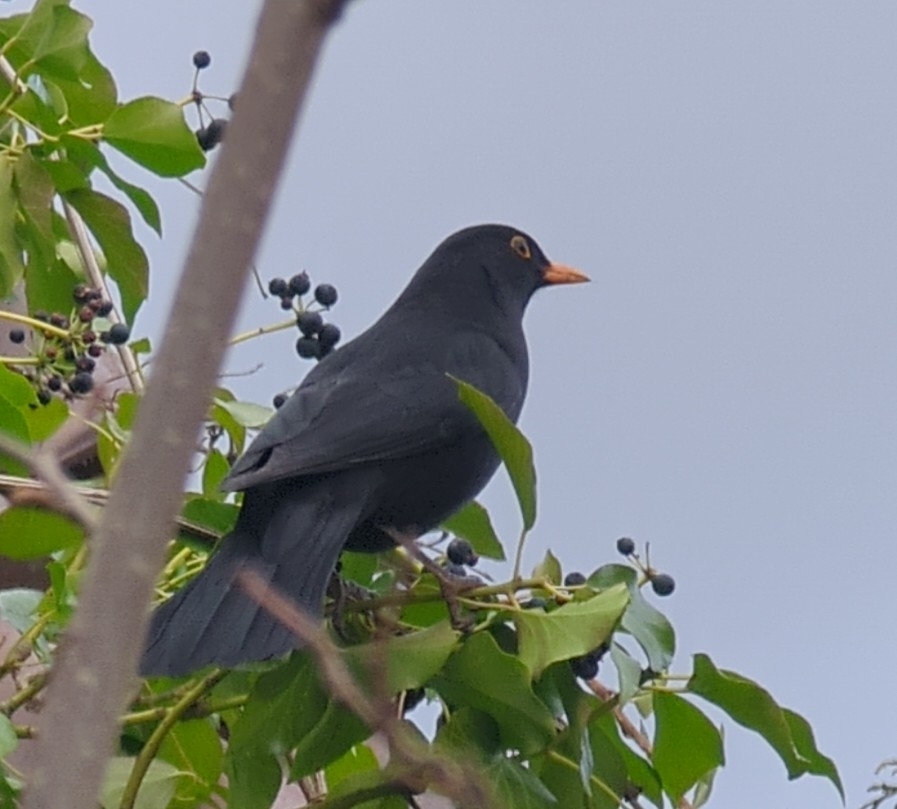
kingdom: Animalia
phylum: Chordata
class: Aves
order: Passeriformes
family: Turdidae
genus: Turdus
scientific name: Turdus merula
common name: Common blackbird
